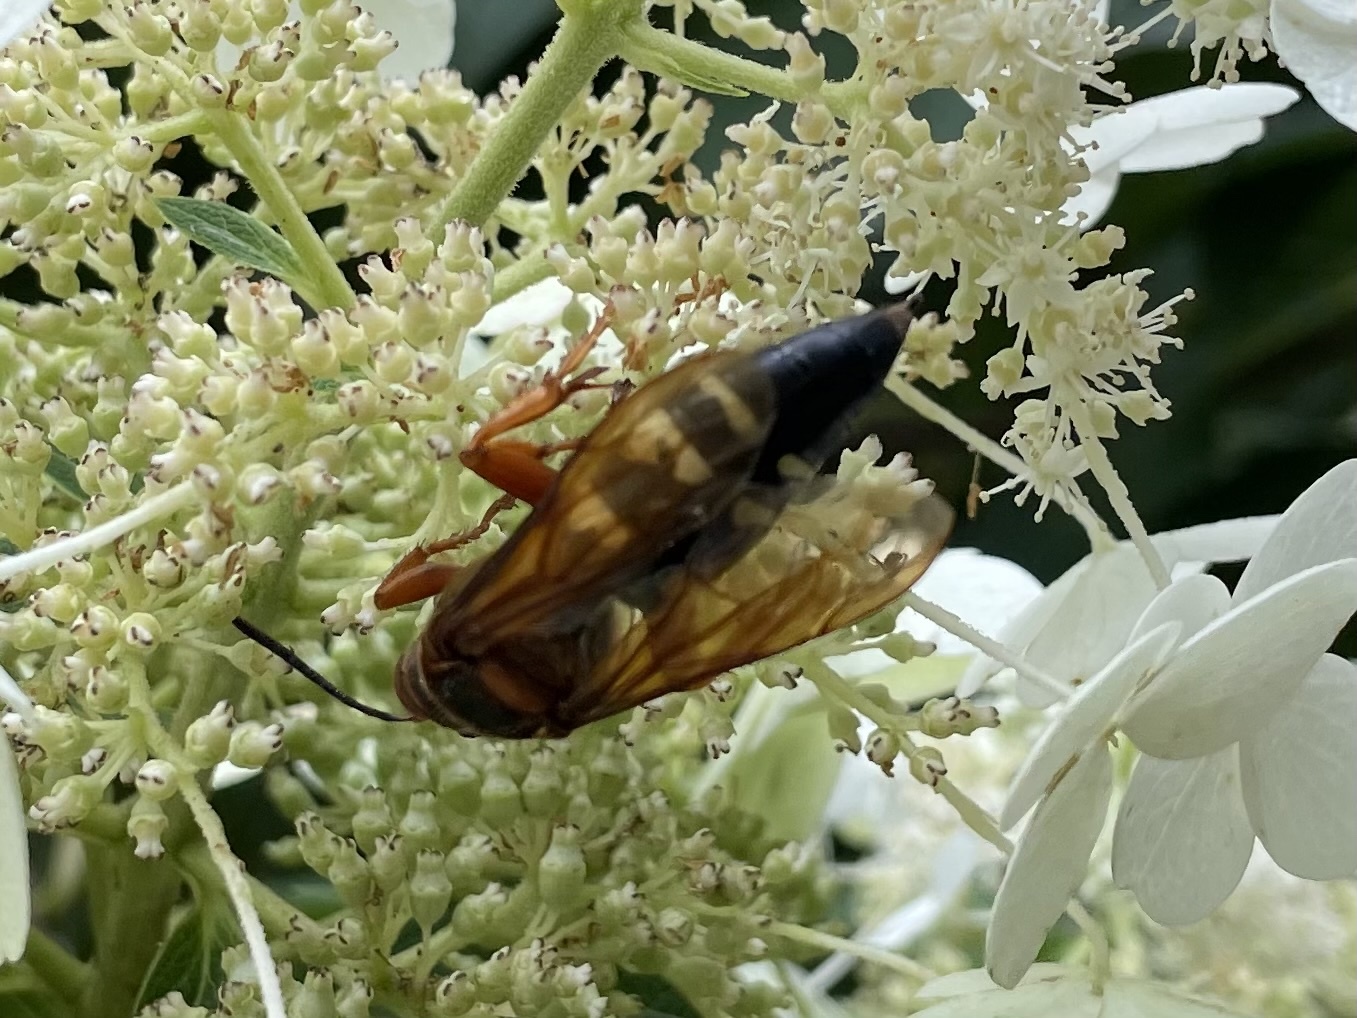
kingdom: Animalia
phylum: Arthropoda
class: Insecta
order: Hymenoptera
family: Crabronidae
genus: Sphecius
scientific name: Sphecius speciosus
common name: Cicada killer
